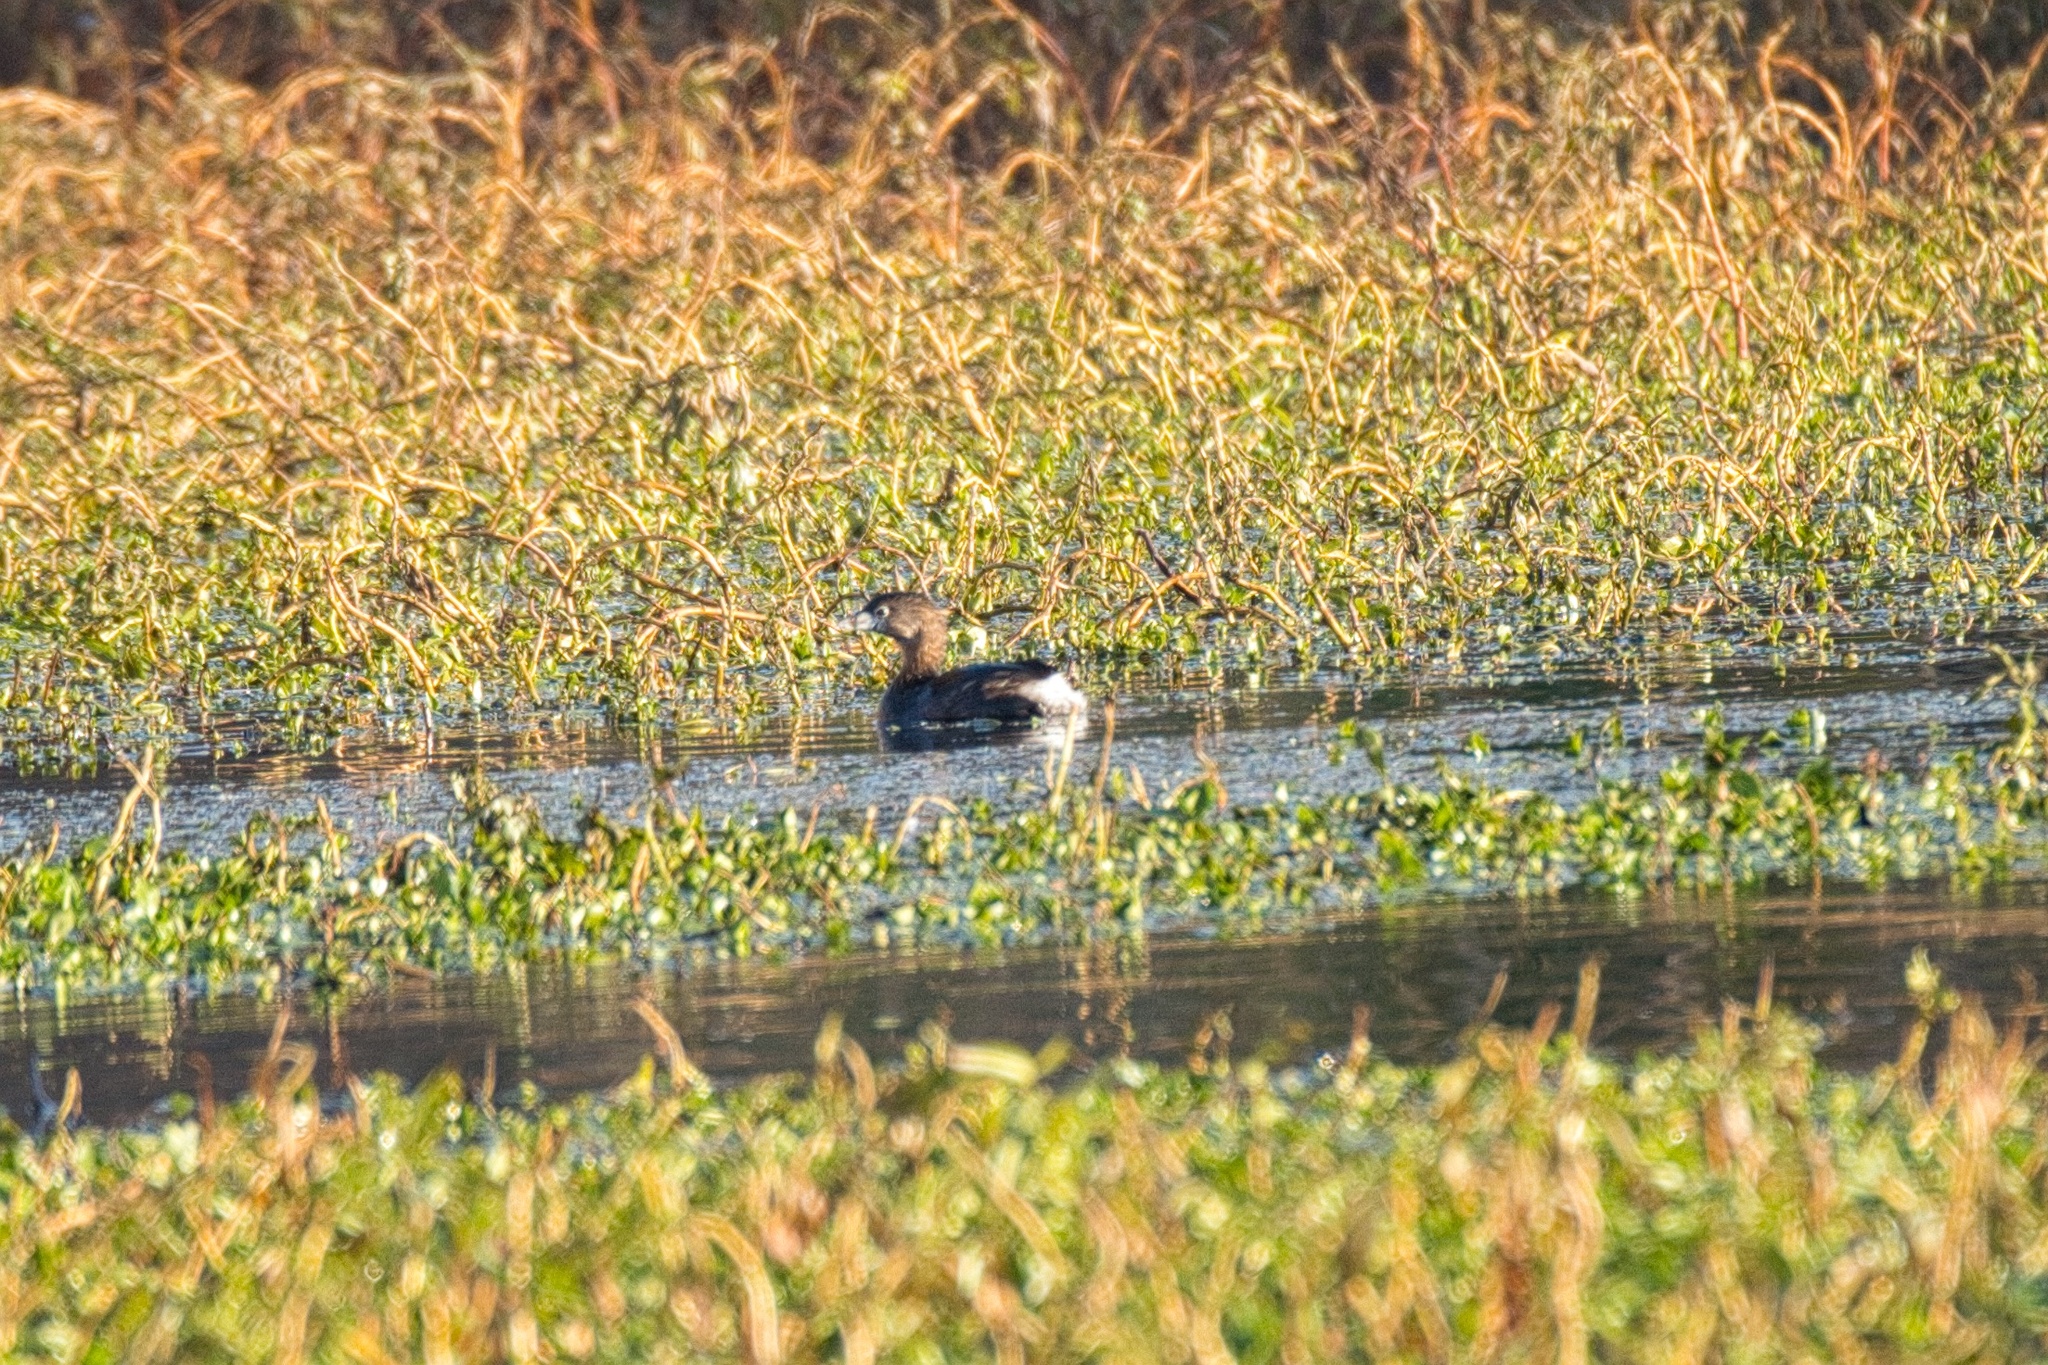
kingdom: Animalia
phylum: Chordata
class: Aves
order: Podicipediformes
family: Podicipedidae
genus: Podilymbus
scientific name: Podilymbus podiceps
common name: Pied-billed grebe
